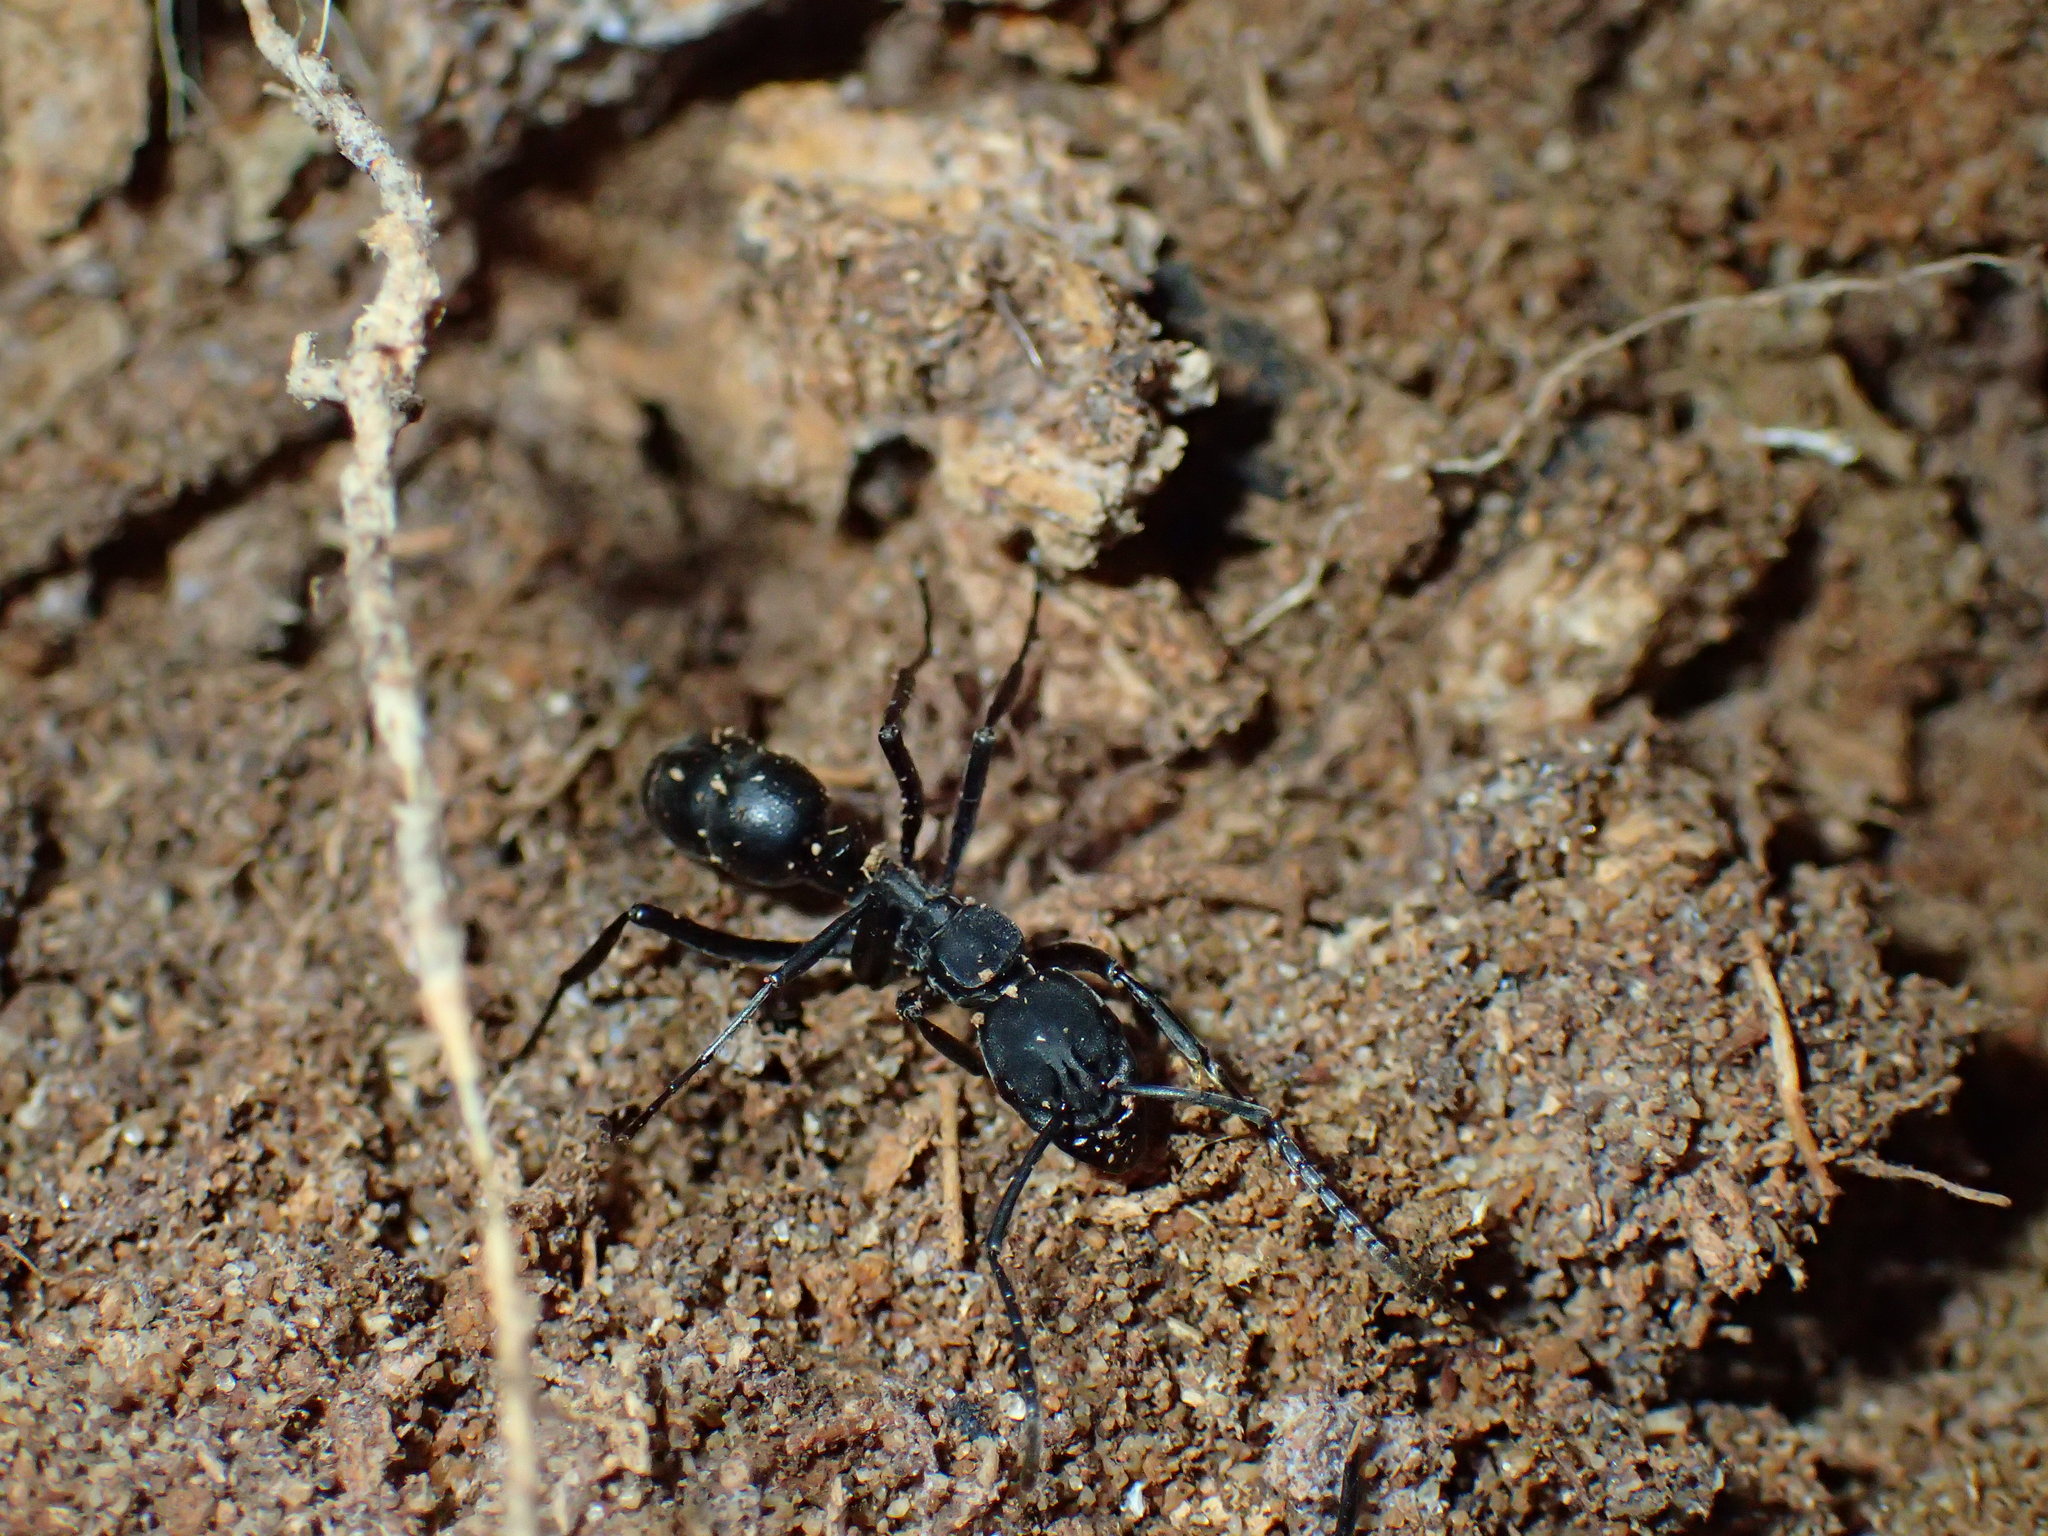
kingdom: Animalia
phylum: Arthropoda
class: Insecta
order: Hymenoptera
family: Formicidae
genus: Hagensia
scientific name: Hagensia
